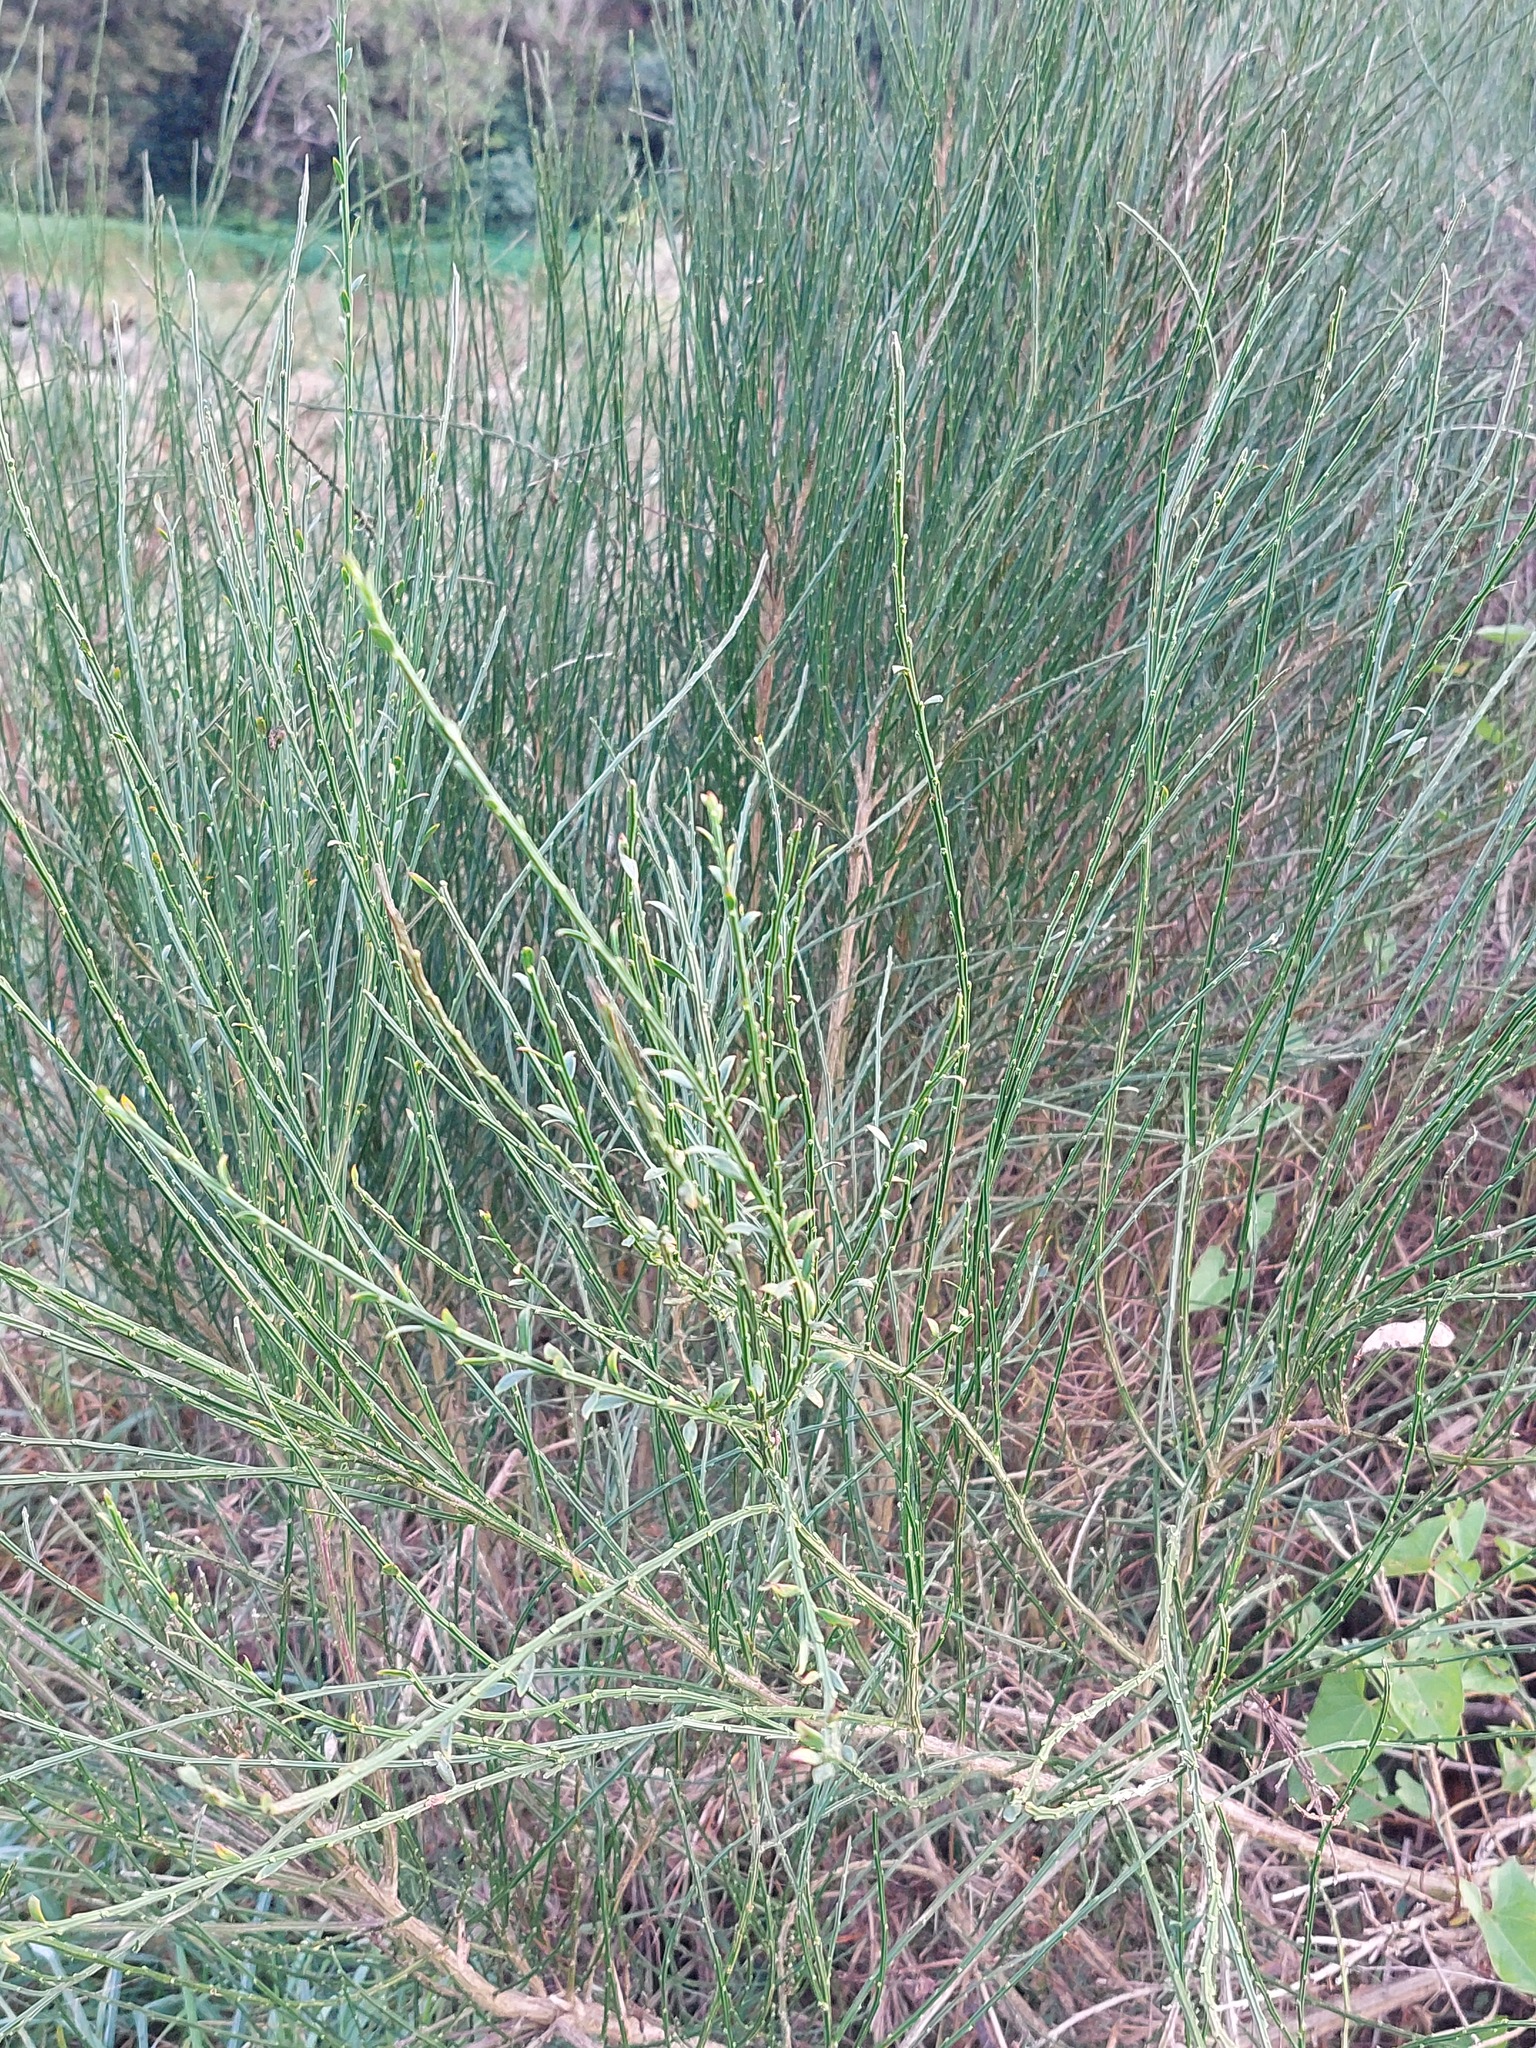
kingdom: Plantae
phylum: Tracheophyta
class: Magnoliopsida
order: Fabales
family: Fabaceae
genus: Cytisus
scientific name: Cytisus scoparius
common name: Scotch broom
